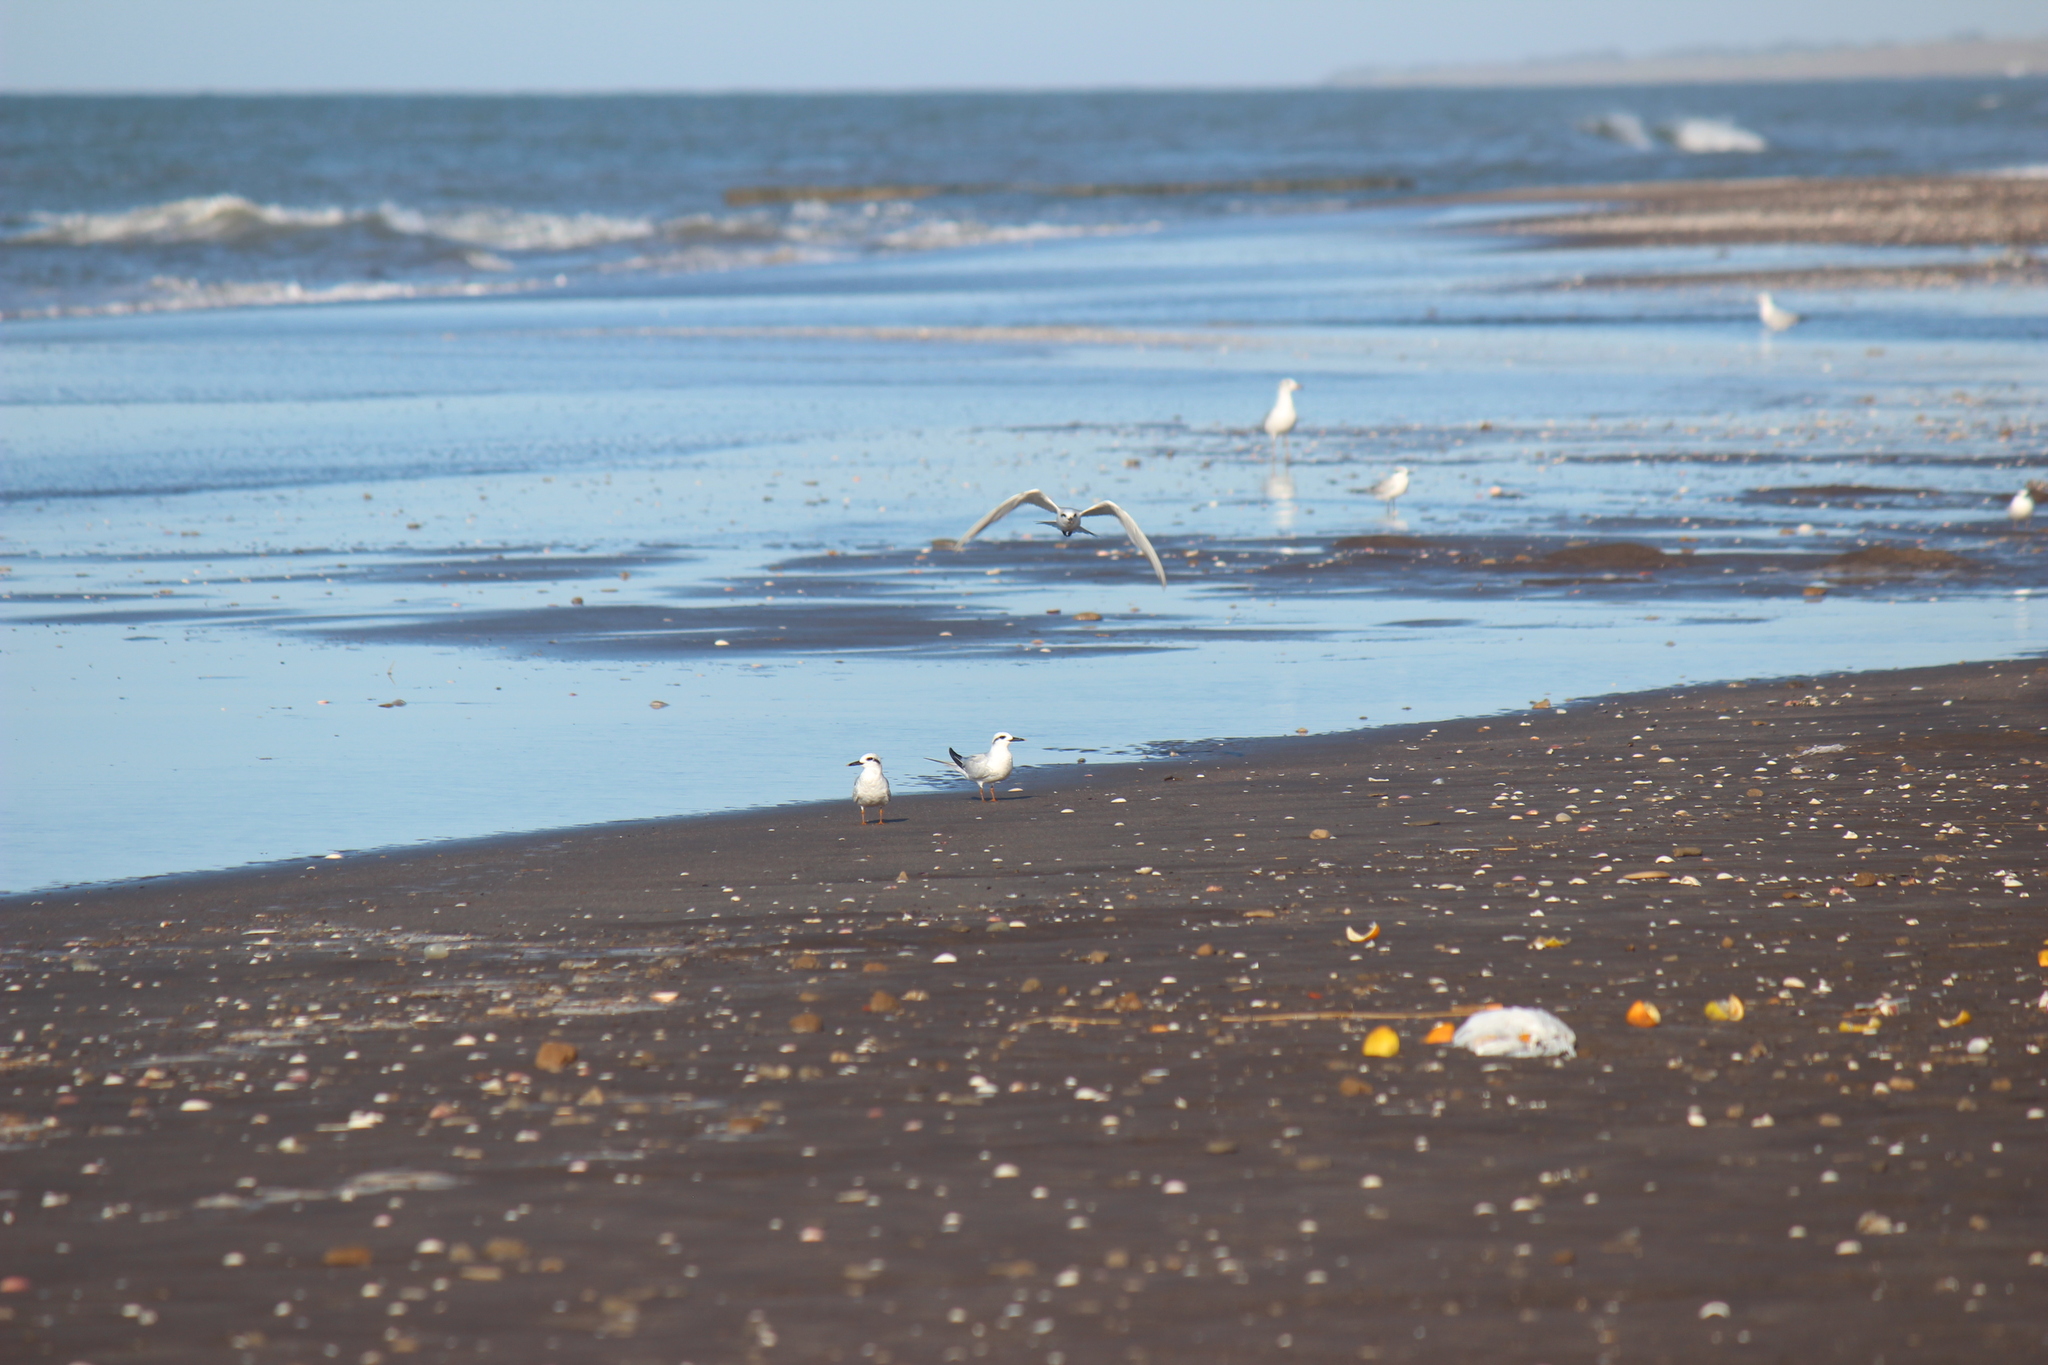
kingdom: Animalia
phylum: Chordata
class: Aves
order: Charadriiformes
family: Laridae
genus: Sterna
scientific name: Sterna trudeaui
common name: Snowy-crowned tern
